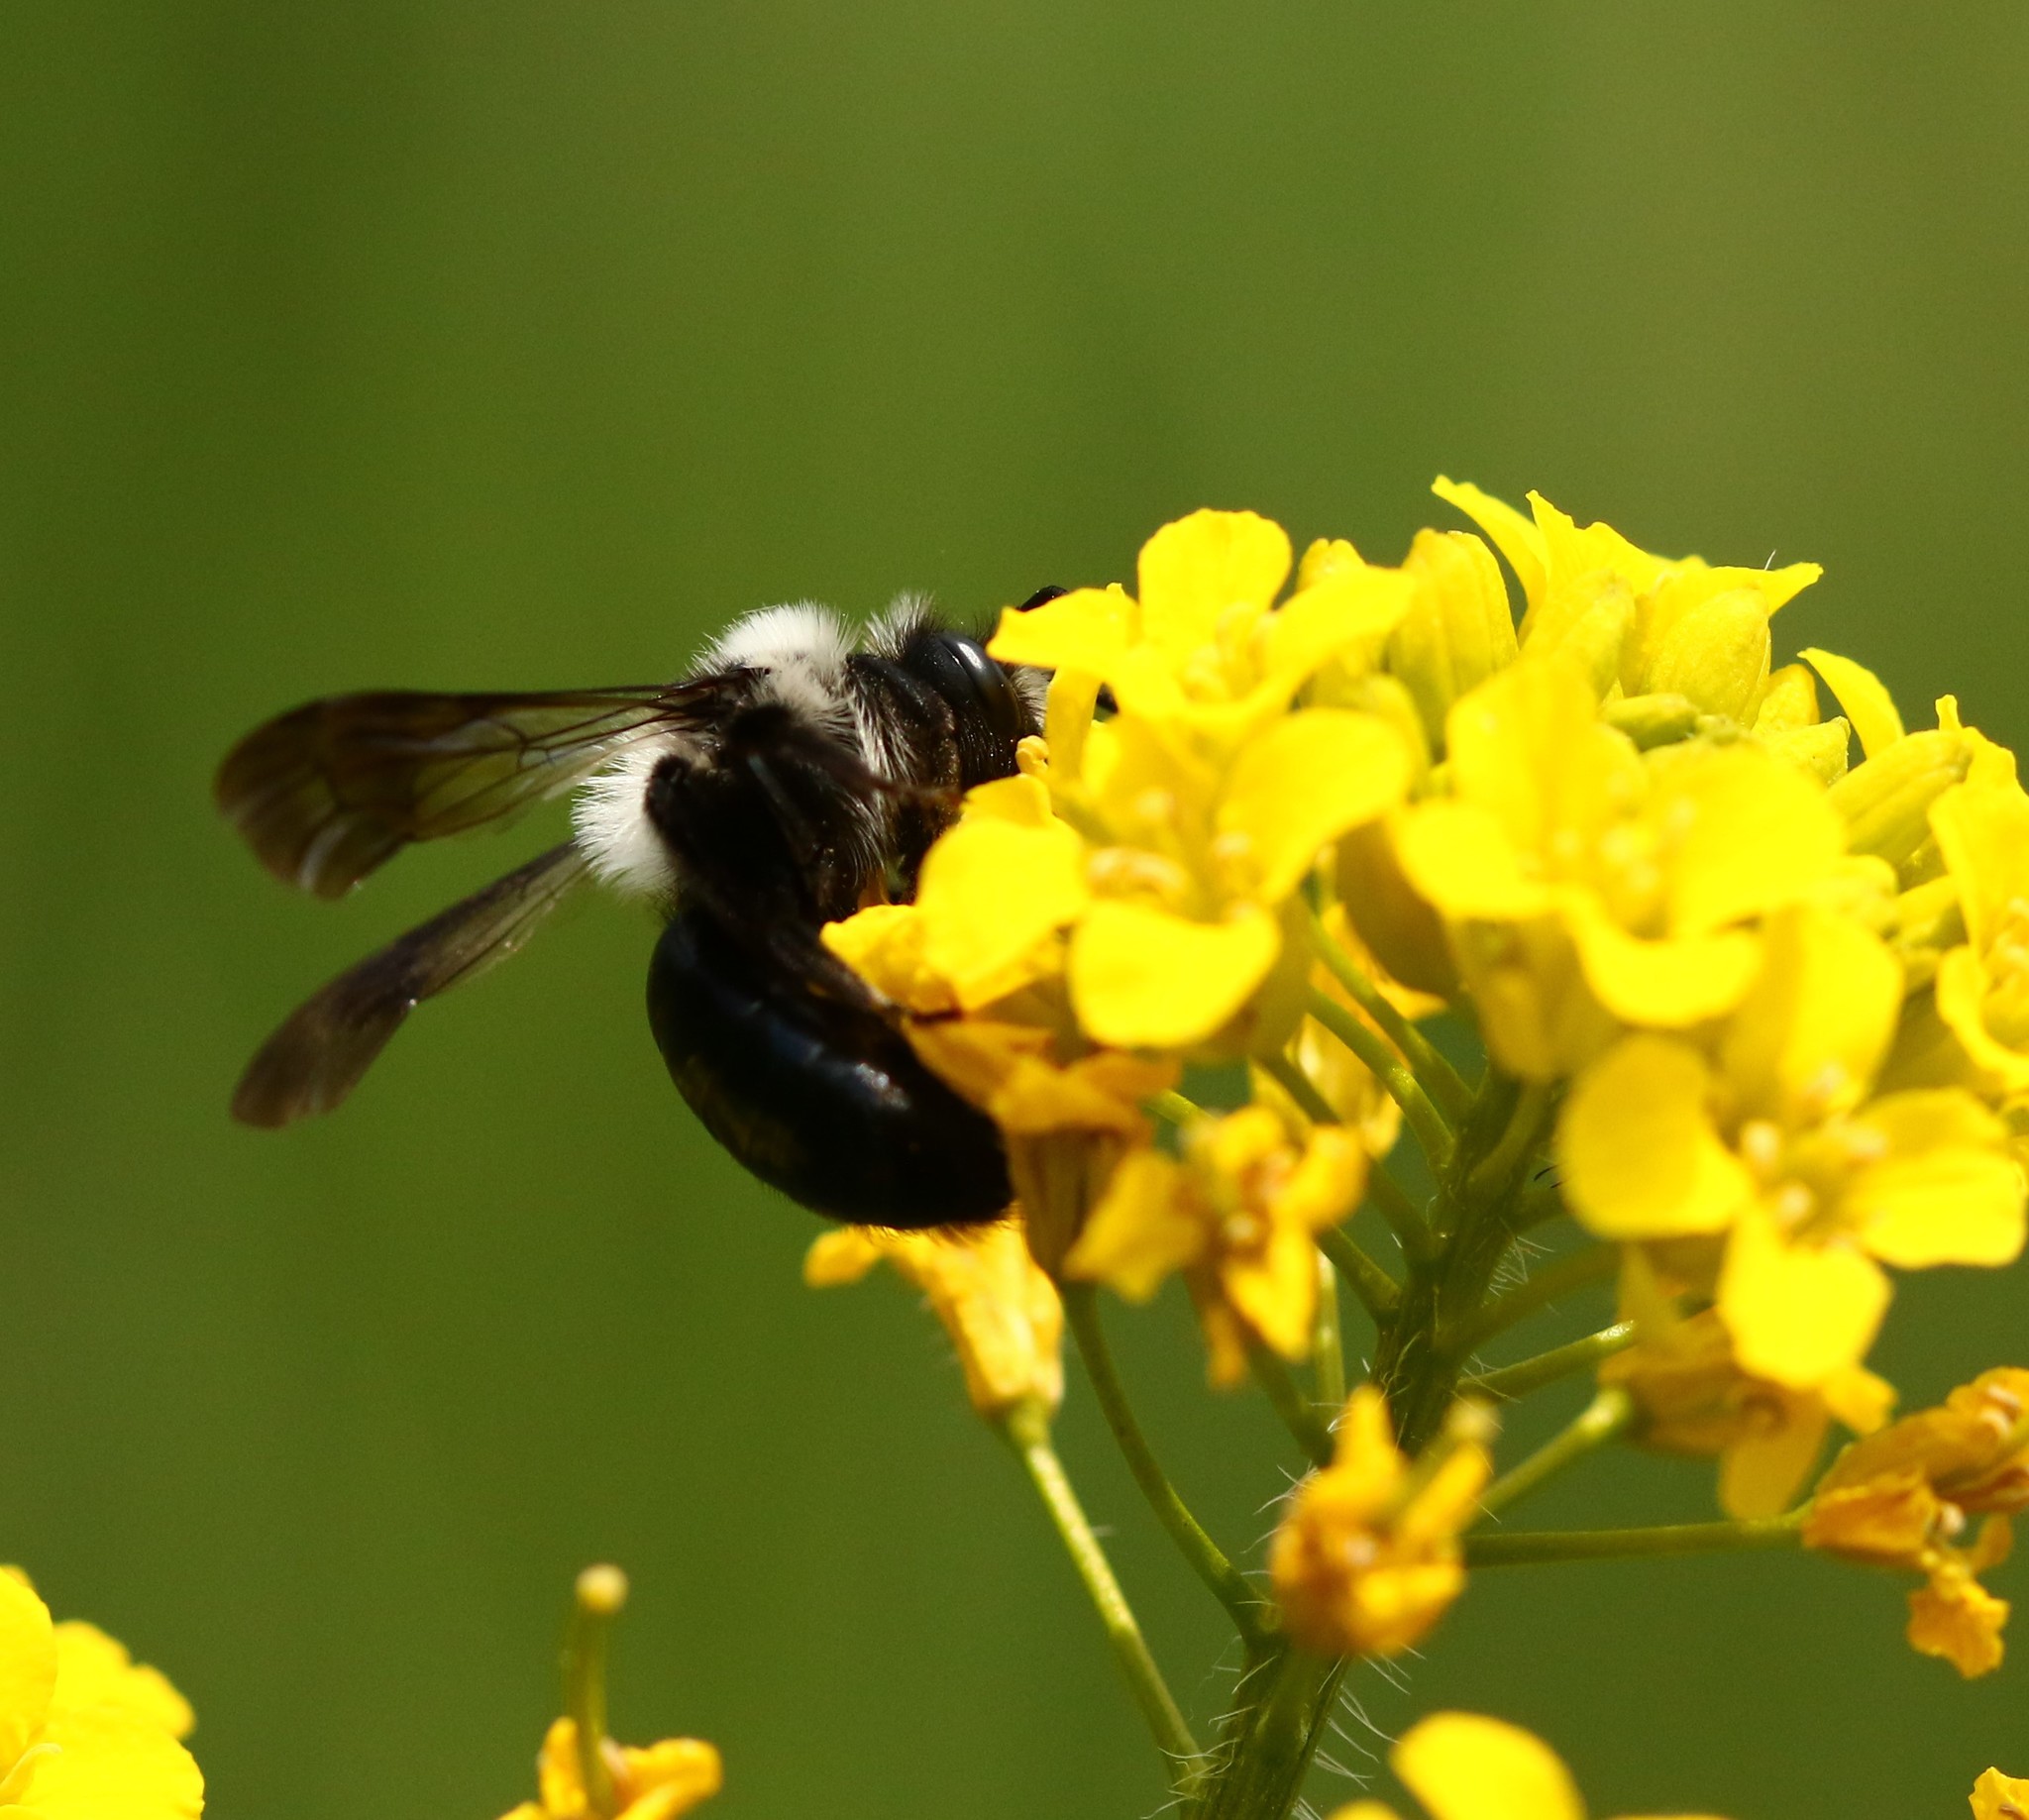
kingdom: Animalia
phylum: Arthropoda
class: Insecta
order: Hymenoptera
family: Andrenidae
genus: Andrena
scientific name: Andrena cineraria
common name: Ashy mining bee
